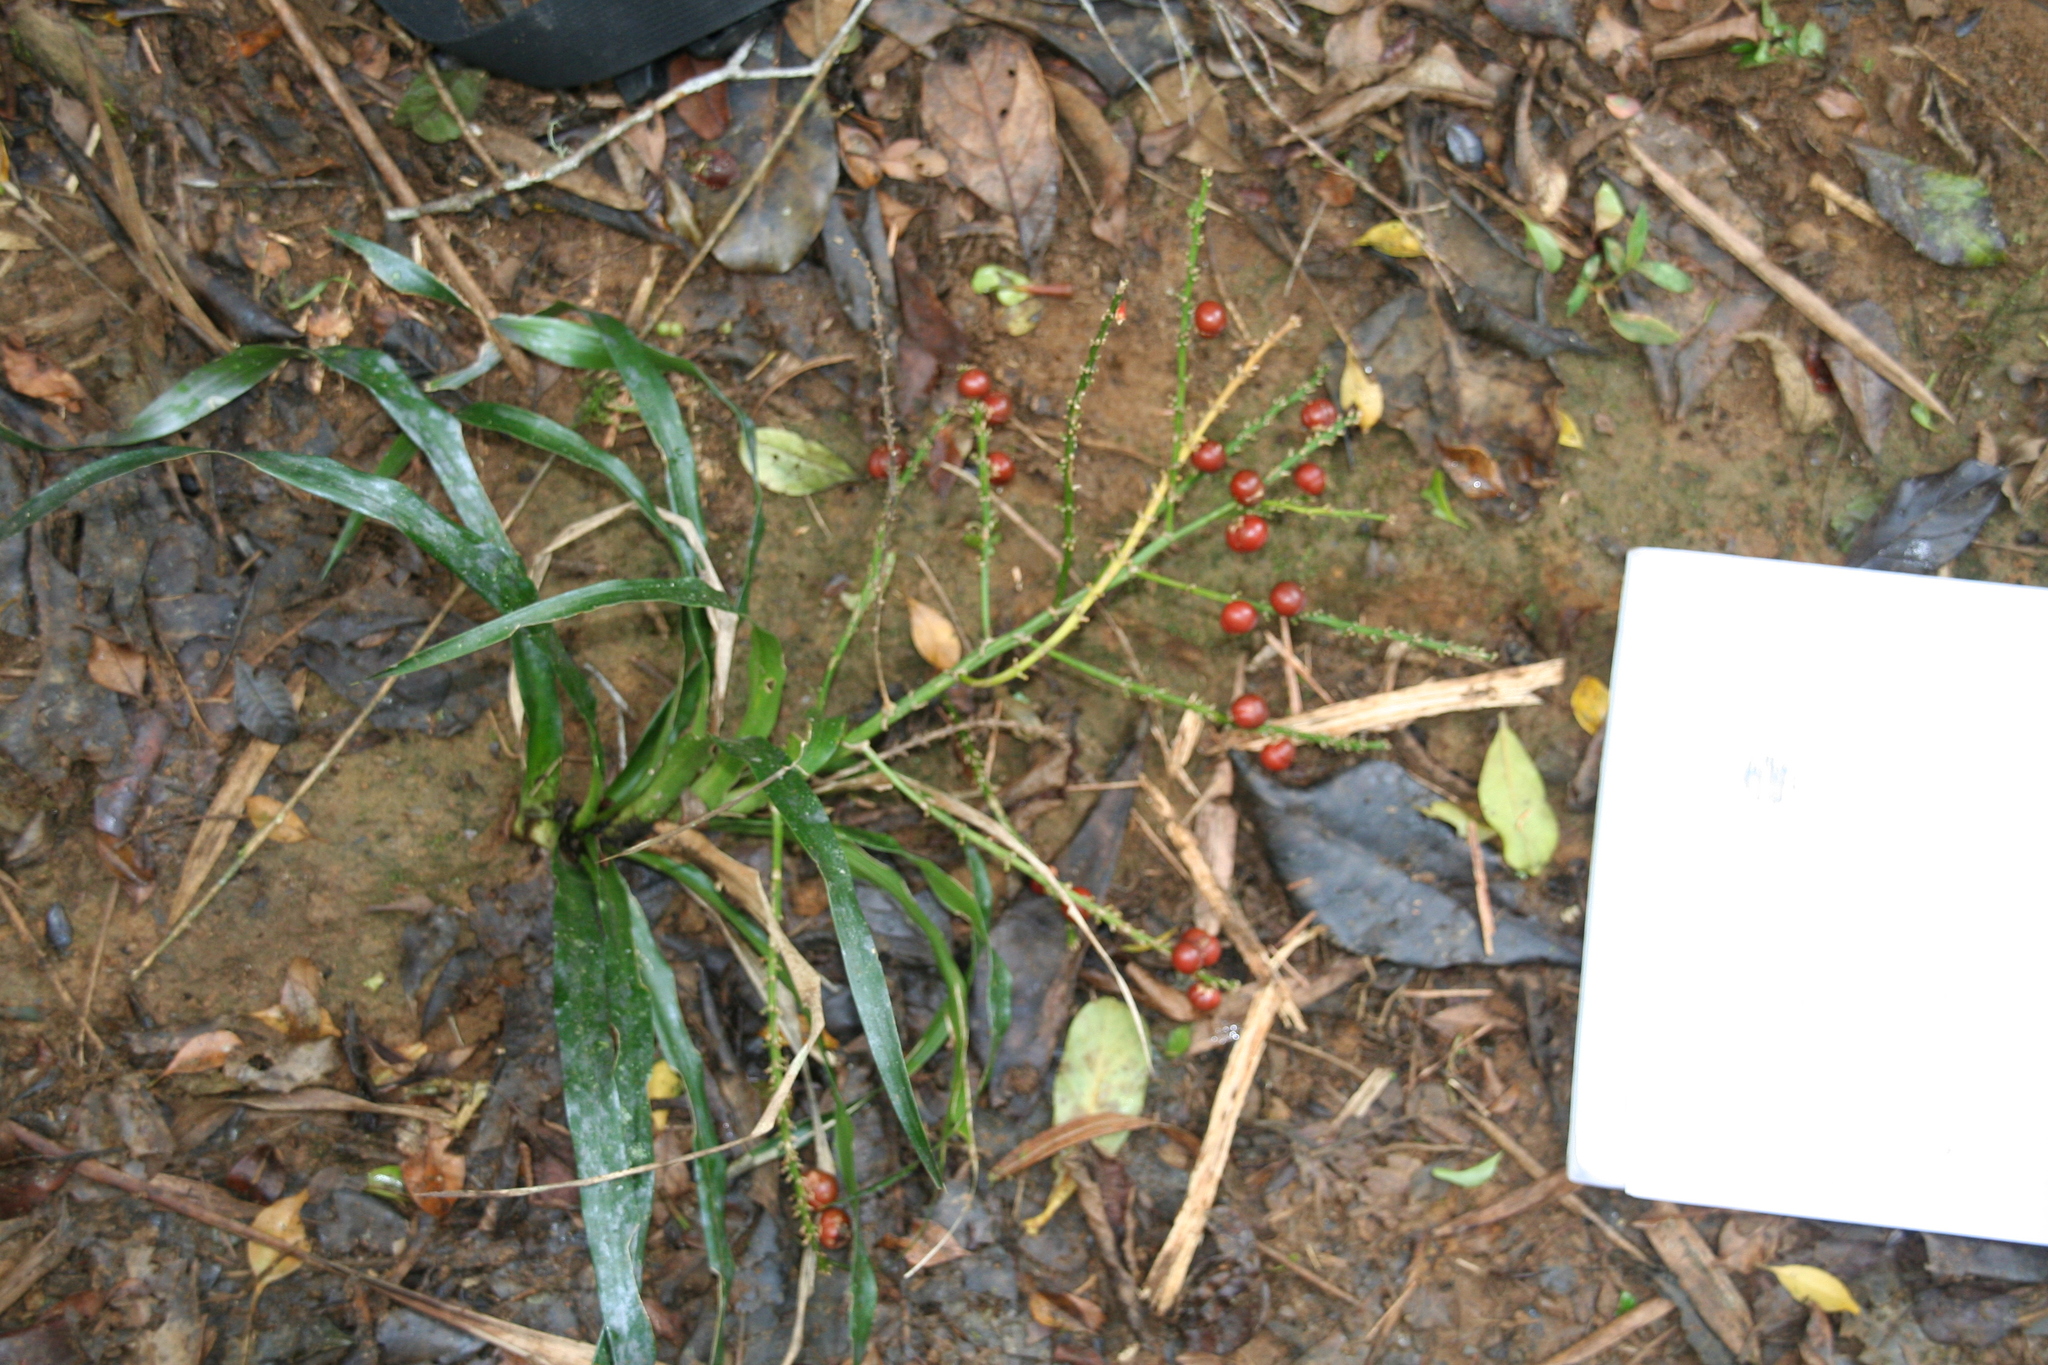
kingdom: Plantae
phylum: Tracheophyta
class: Liliopsida
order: Asparagales
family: Asparagaceae
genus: Dracaena
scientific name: Dracaena reflexa
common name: Song-of-india
